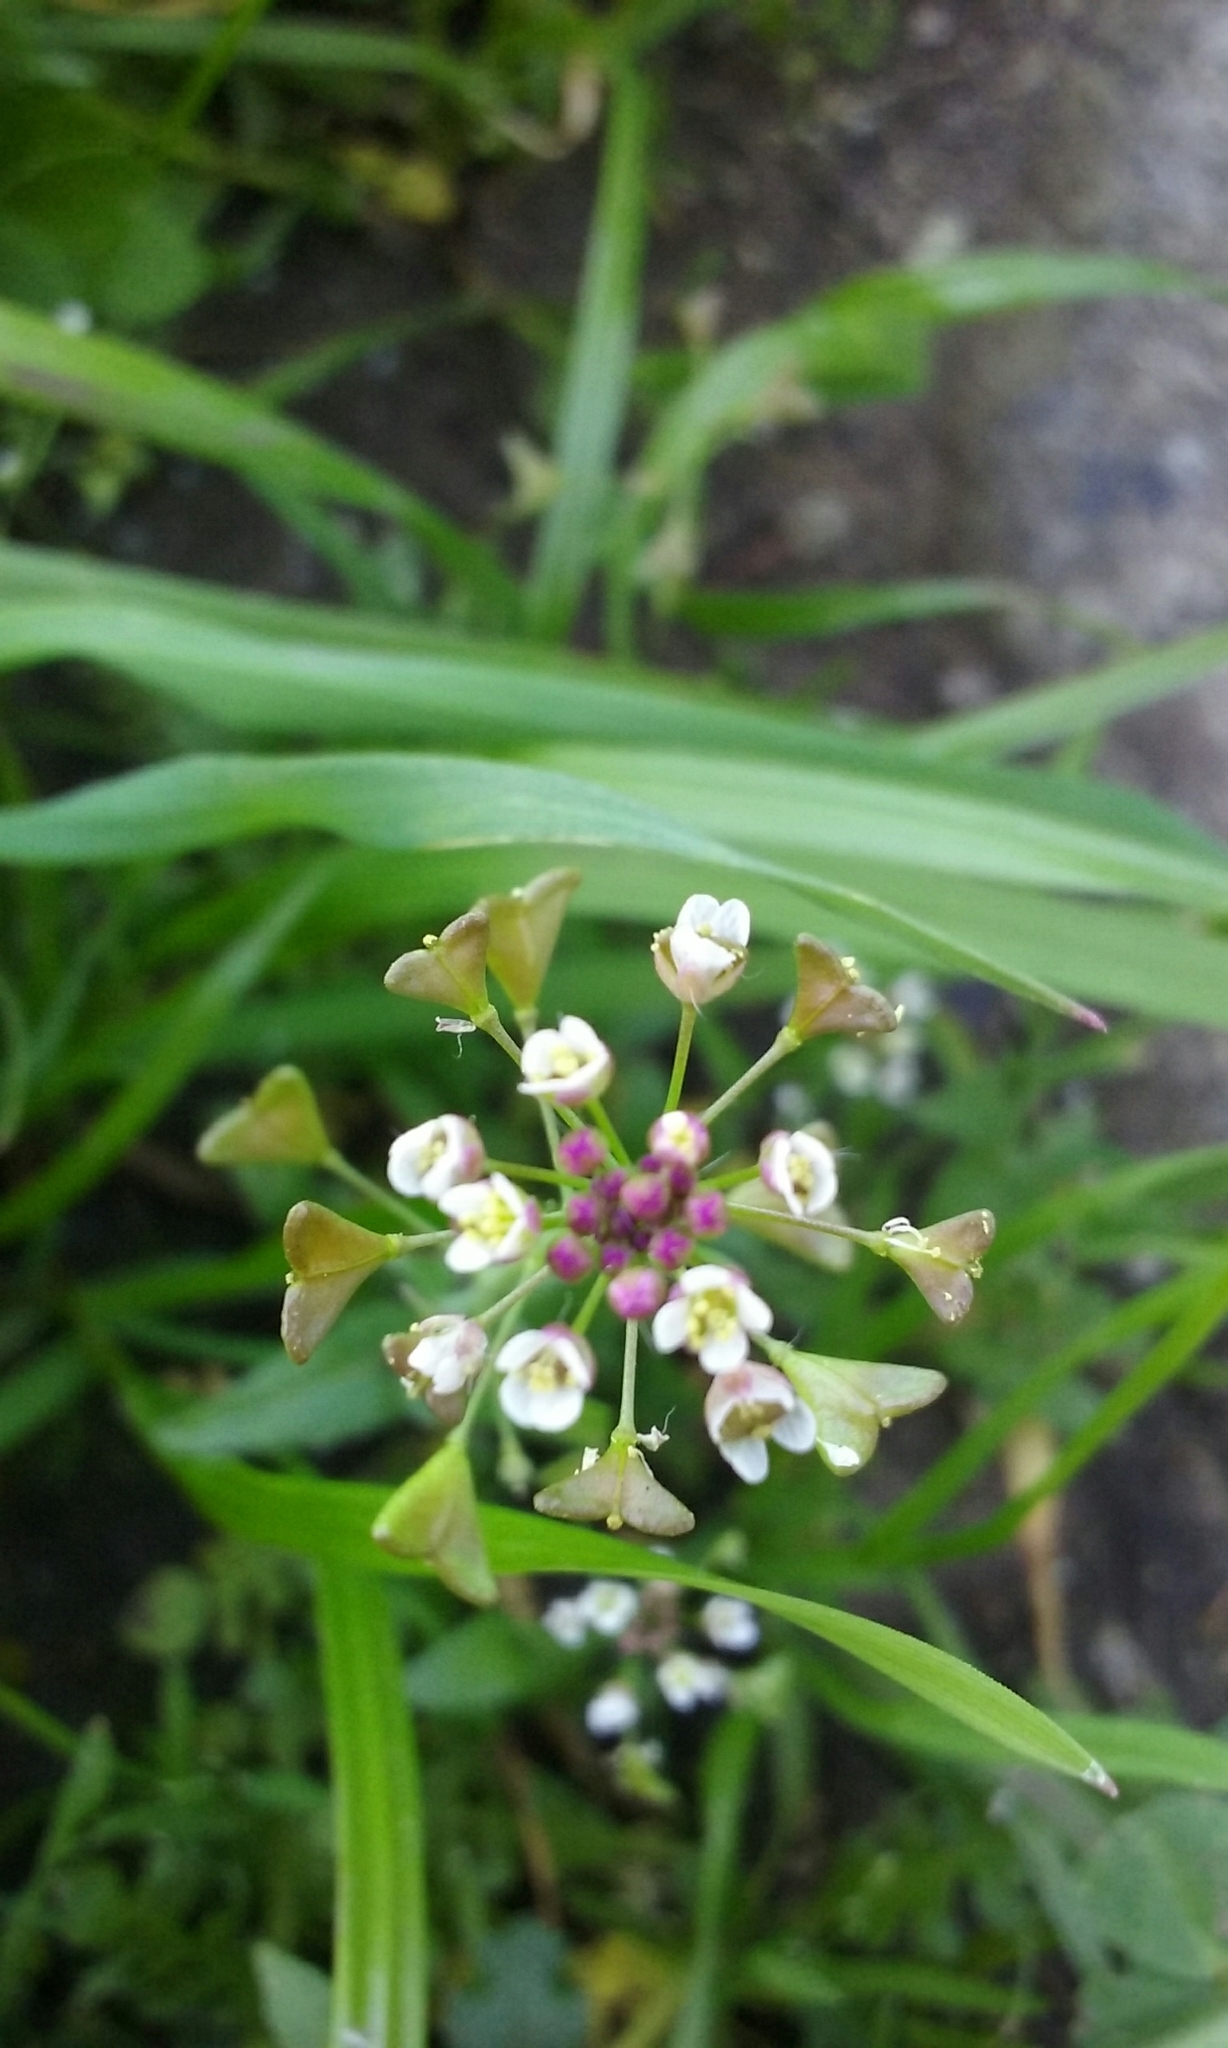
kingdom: Plantae
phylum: Tracheophyta
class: Magnoliopsida
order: Brassicales
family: Brassicaceae
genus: Capsella
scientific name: Capsella bursa-pastoris
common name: Shepherd's purse
